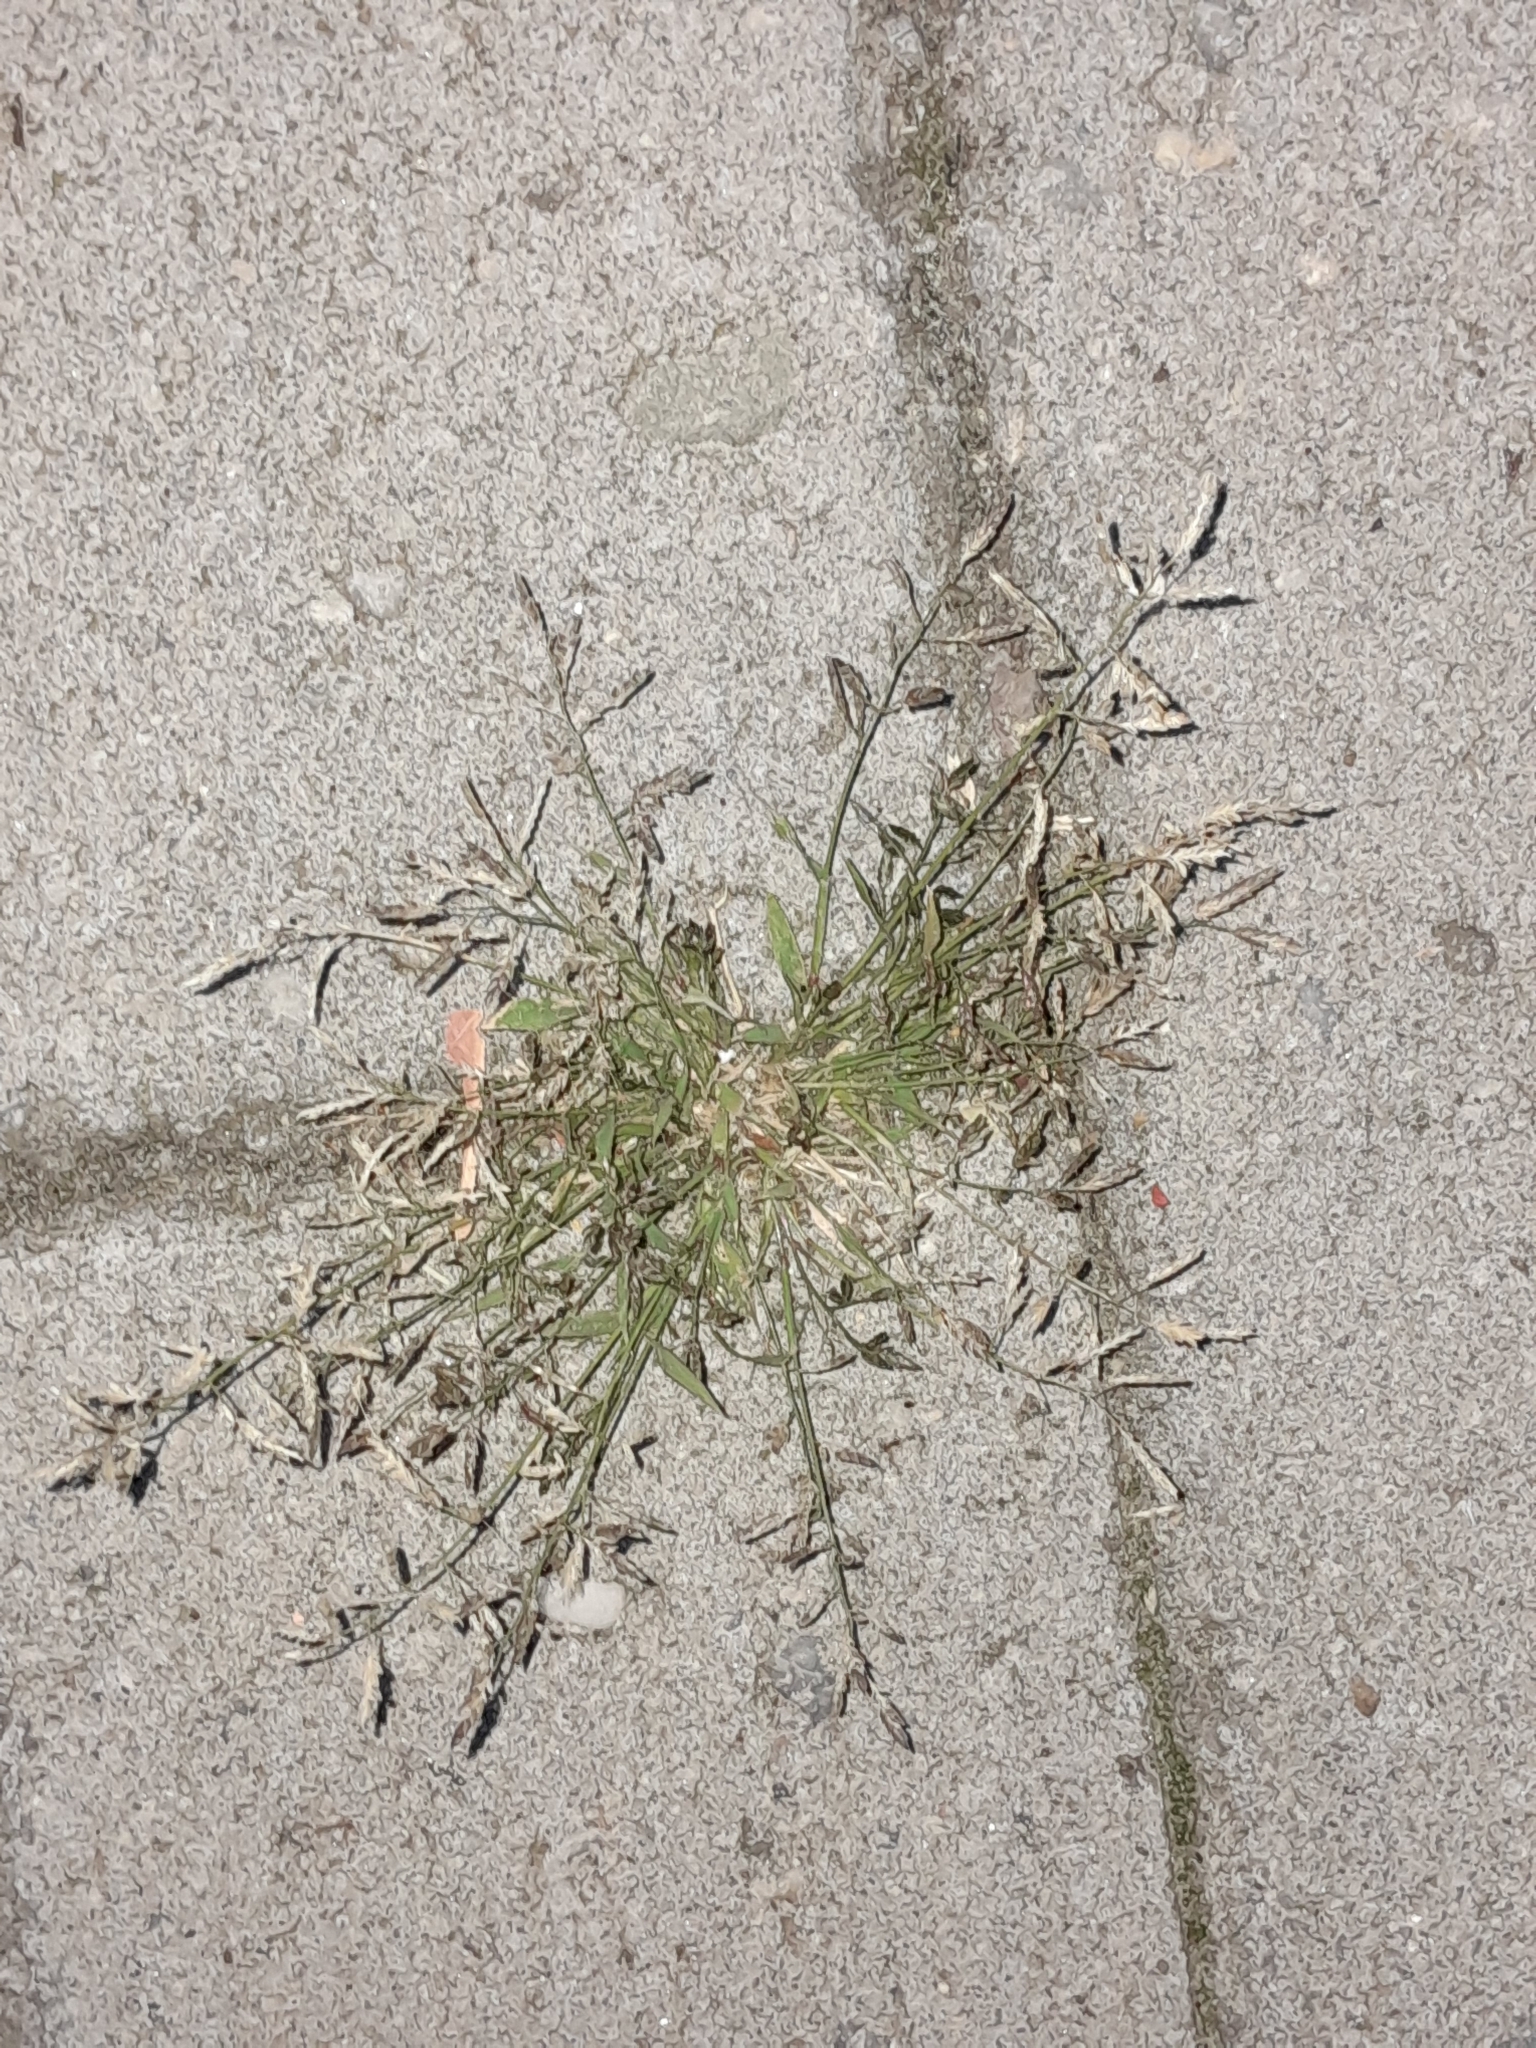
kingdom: Plantae
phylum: Tracheophyta
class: Liliopsida
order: Poales
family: Poaceae
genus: Eragrostis
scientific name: Eragrostis minor
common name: Small love-grass
